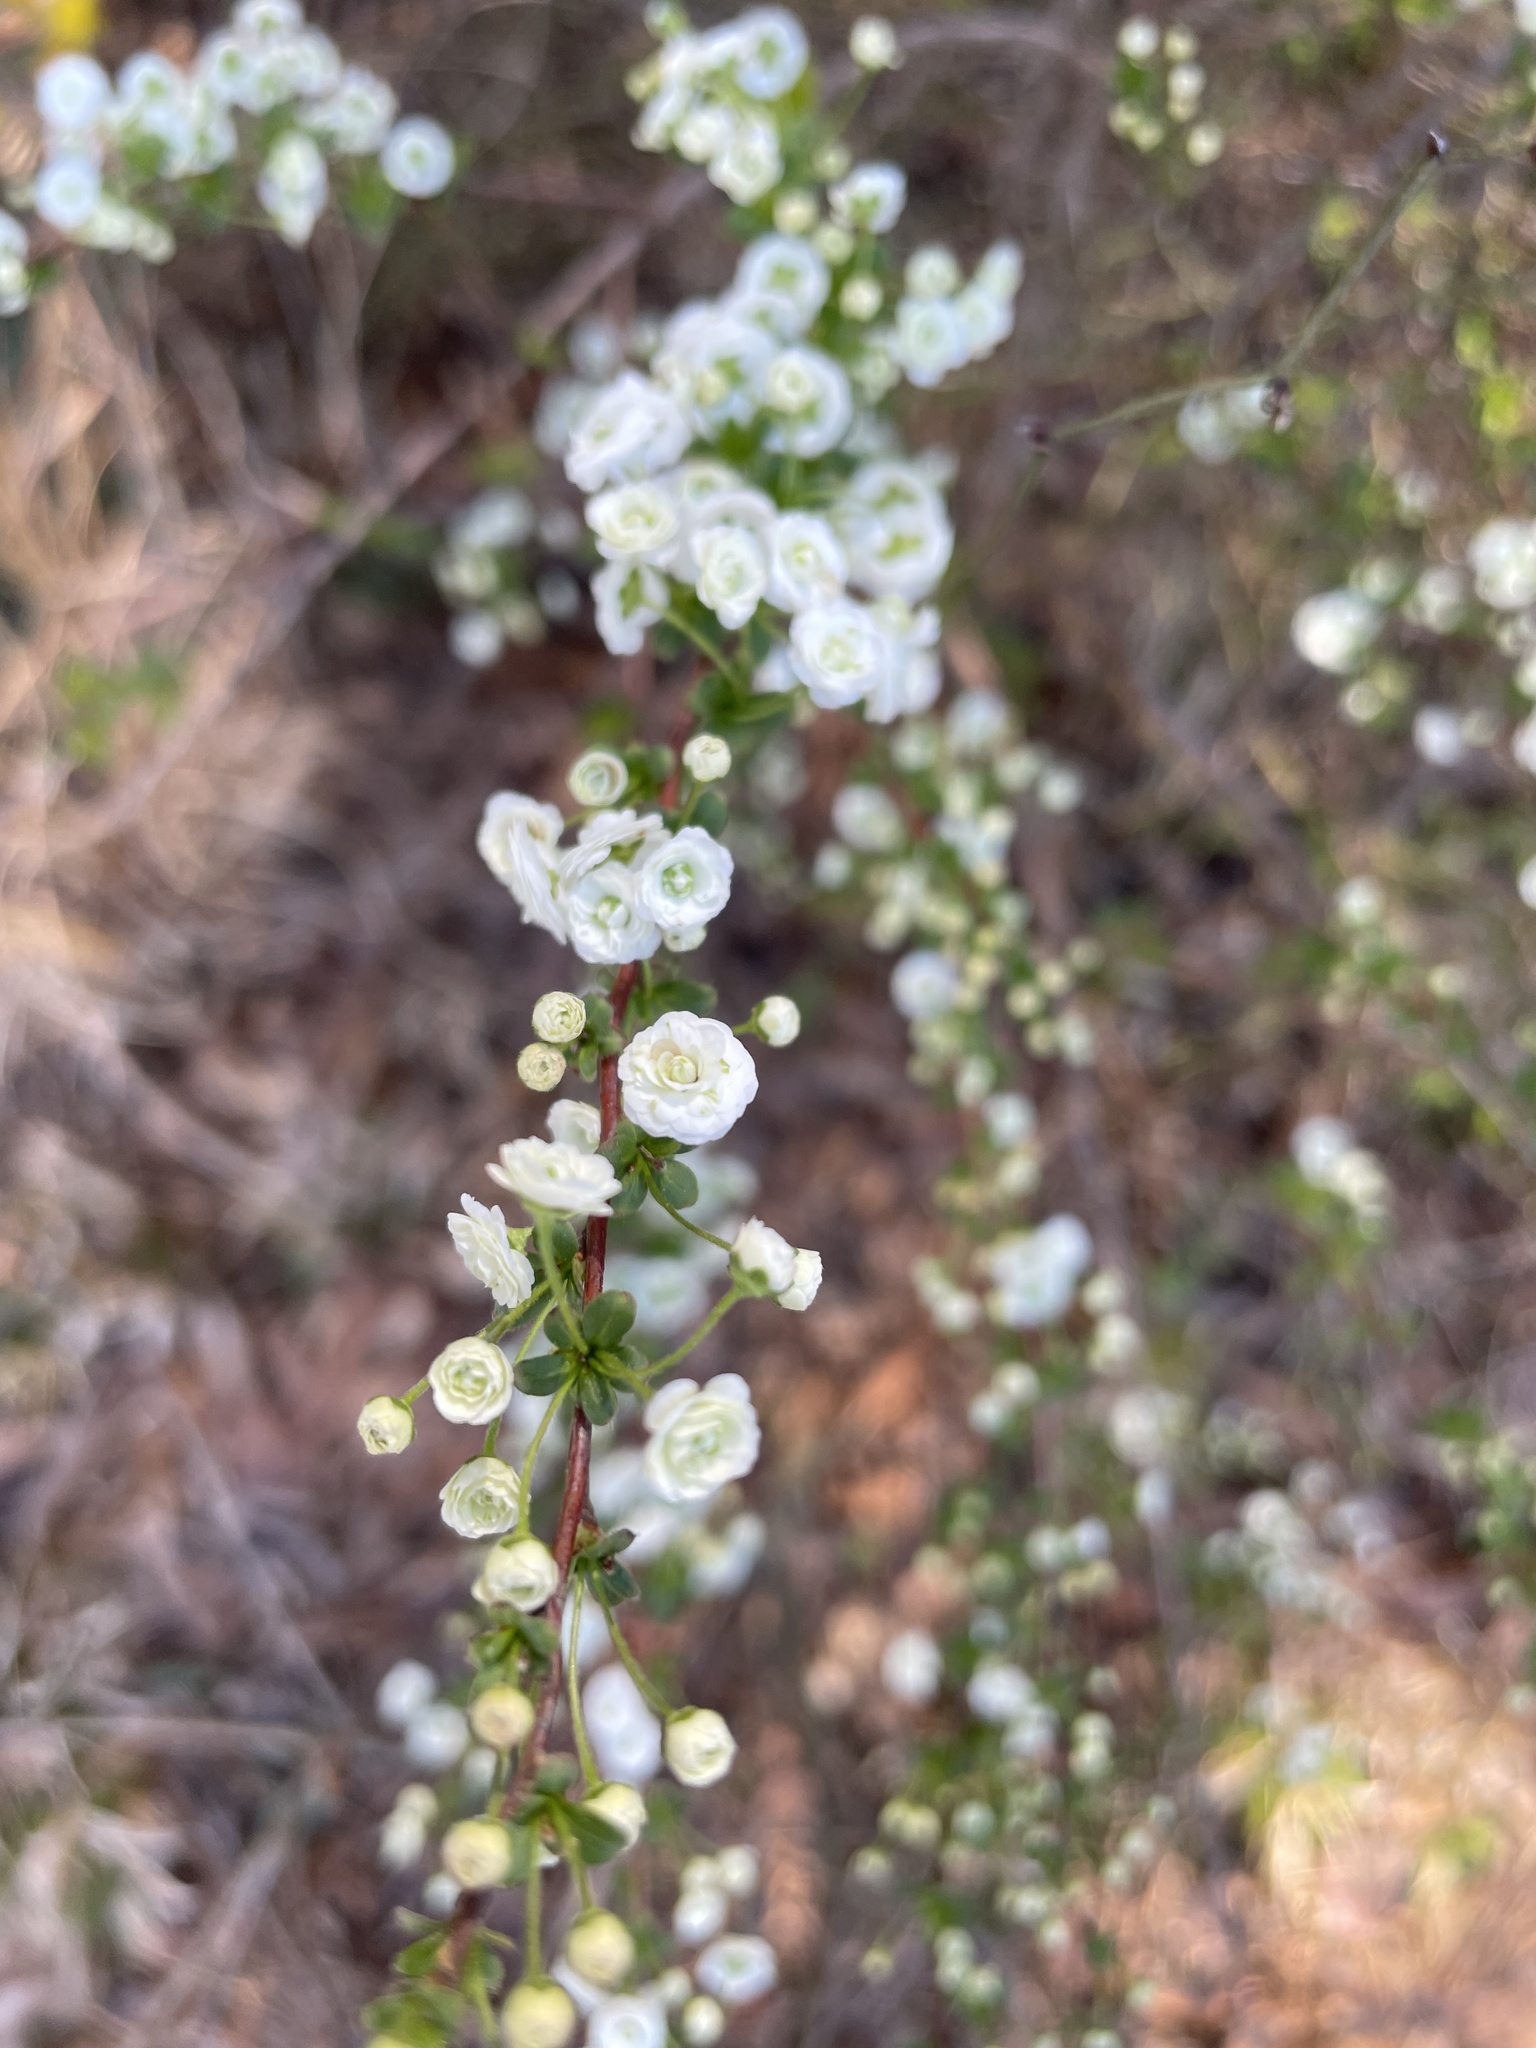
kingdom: Plantae
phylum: Tracheophyta
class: Magnoliopsida
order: Rosales
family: Rosaceae
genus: Spiraea
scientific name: Spiraea prunifolia
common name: Bridal-wreath spiraea
